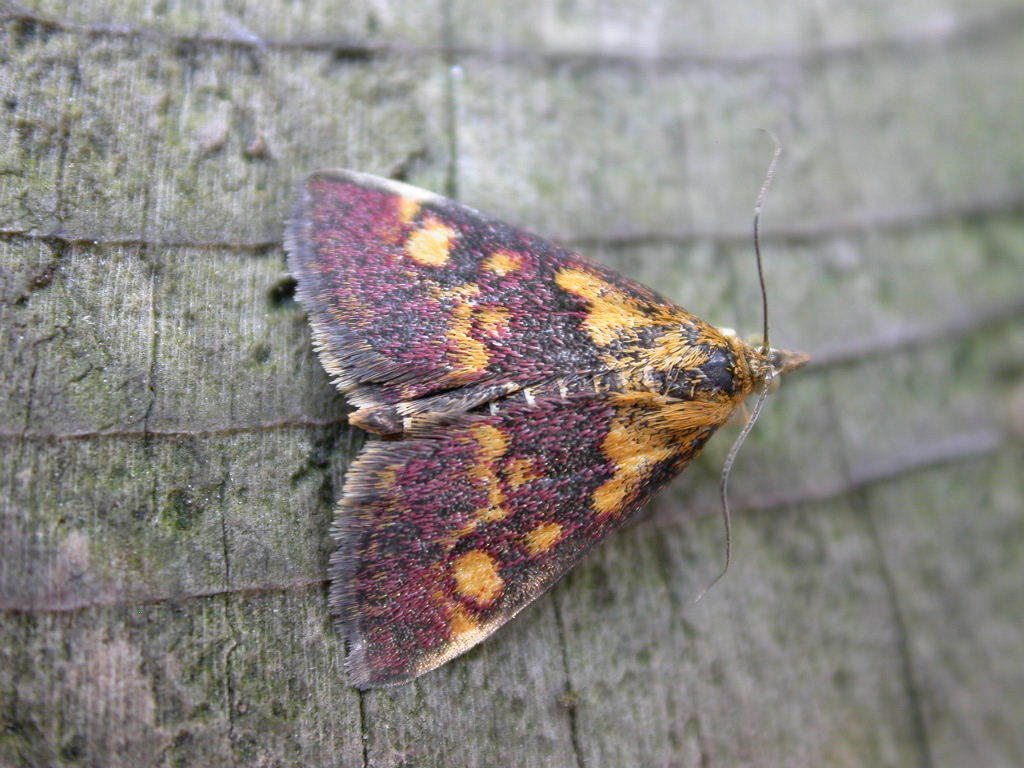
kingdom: Animalia
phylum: Arthropoda
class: Insecta
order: Lepidoptera
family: Crambidae
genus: Pyrausta
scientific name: Pyrausta aurata
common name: Small purple & gold
